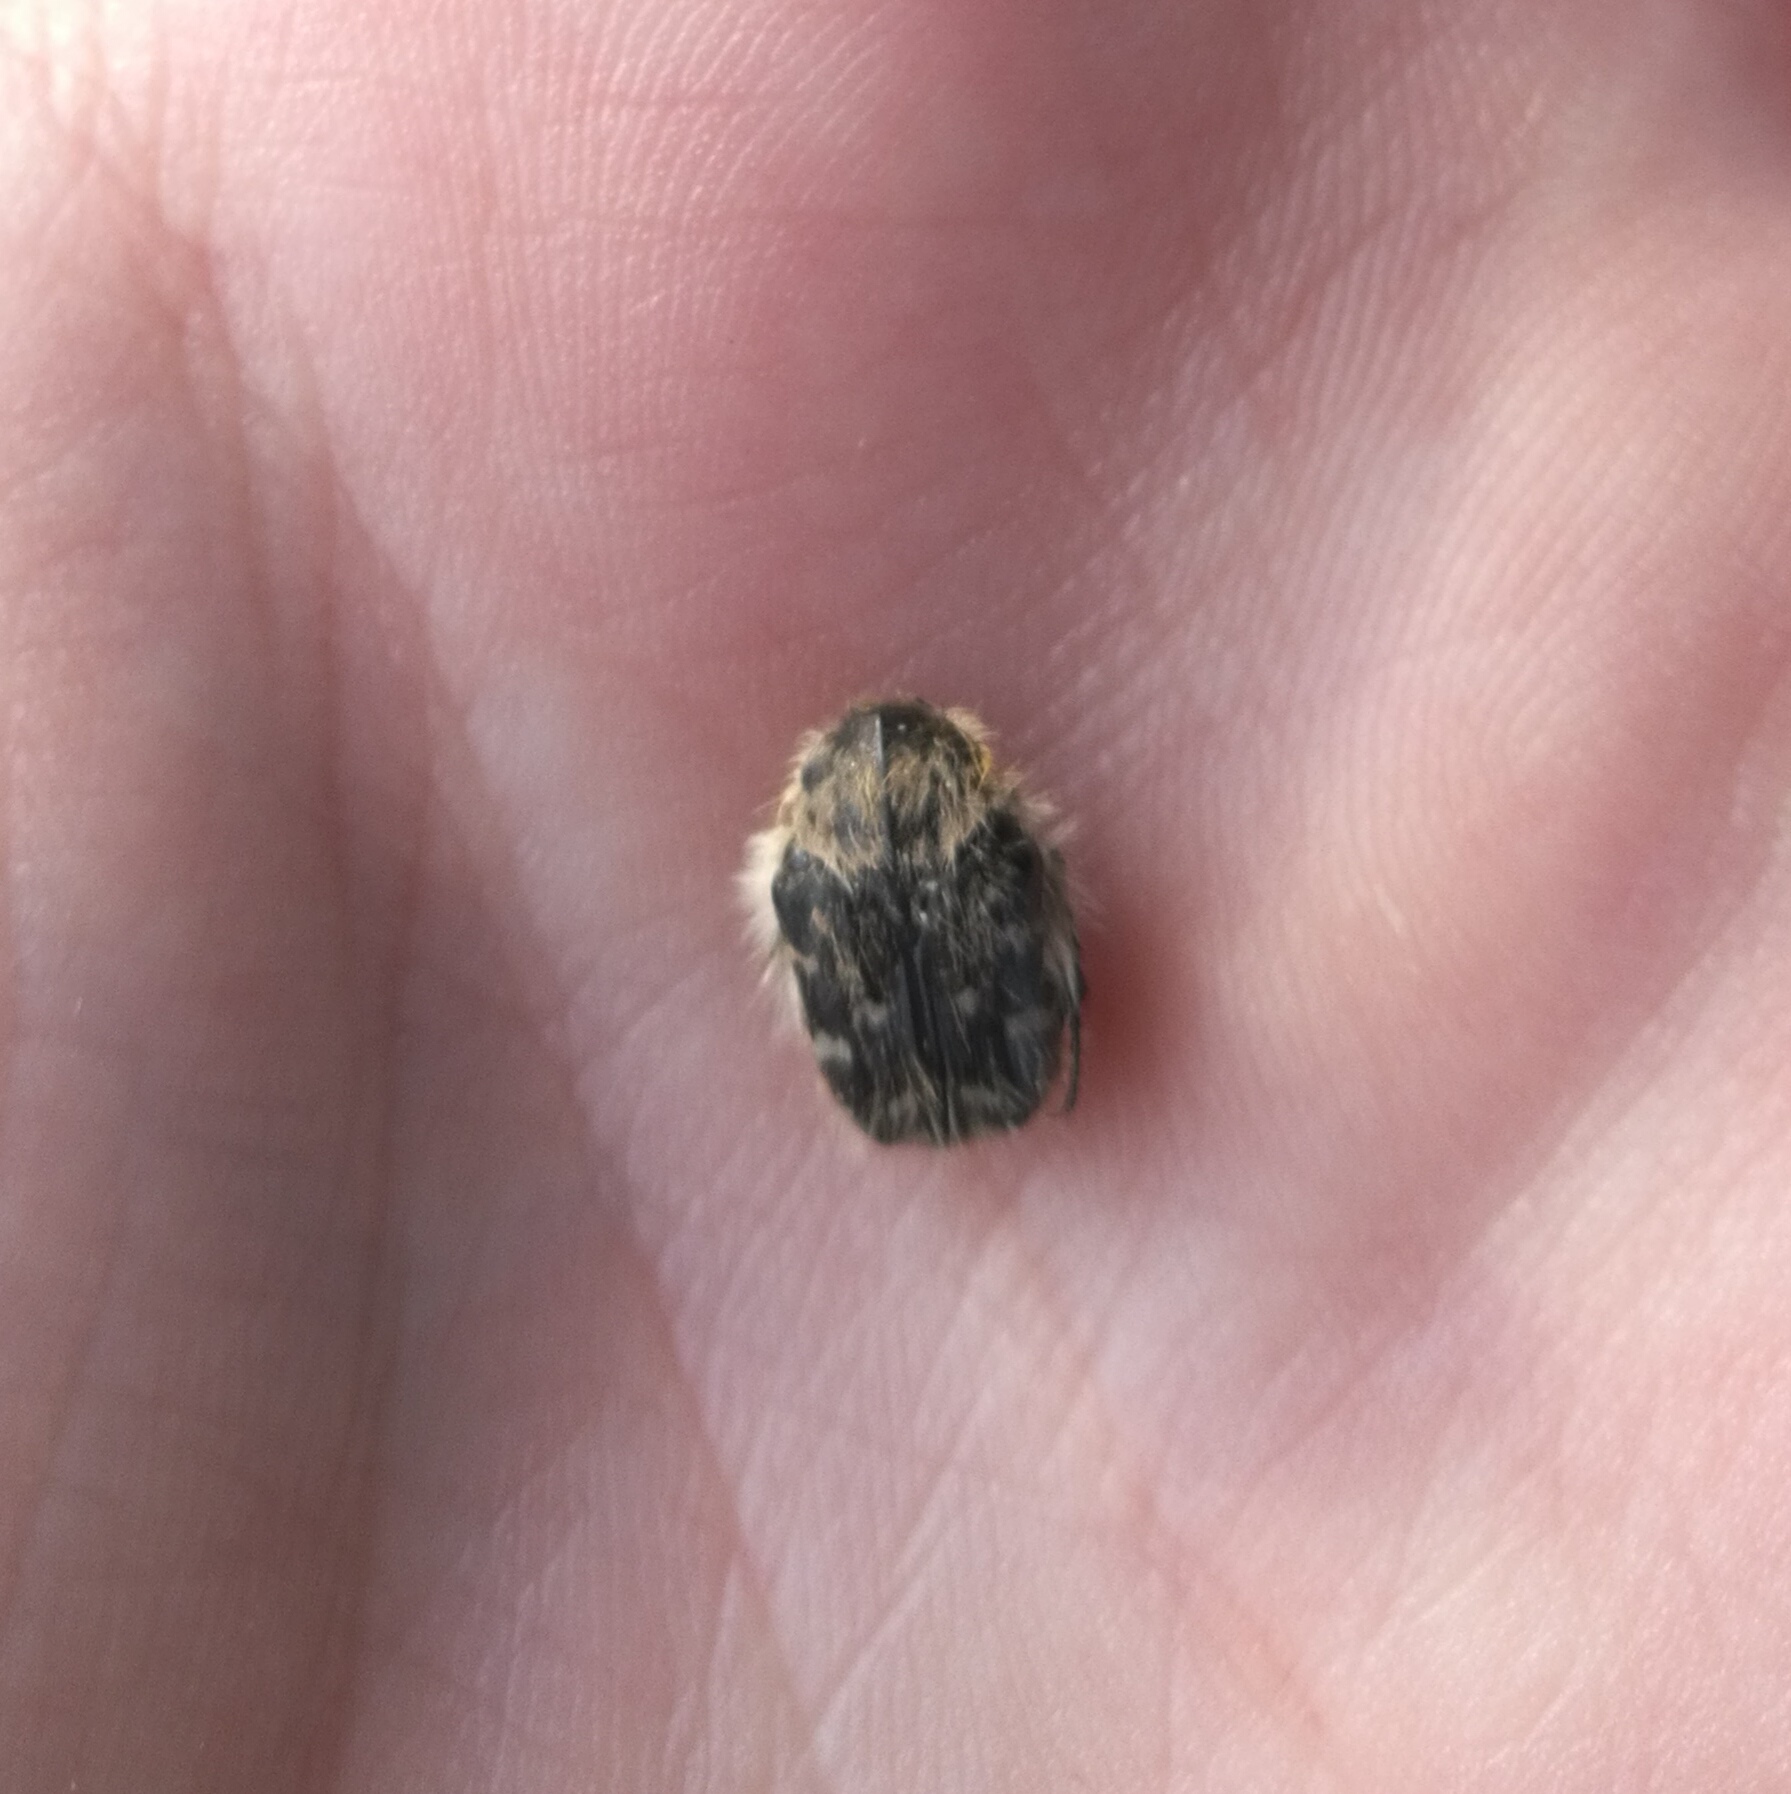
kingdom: Animalia
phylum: Arthropoda
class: Insecta
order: Coleoptera
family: Scarabaeidae
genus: Tropinota
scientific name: Tropinota hirta
